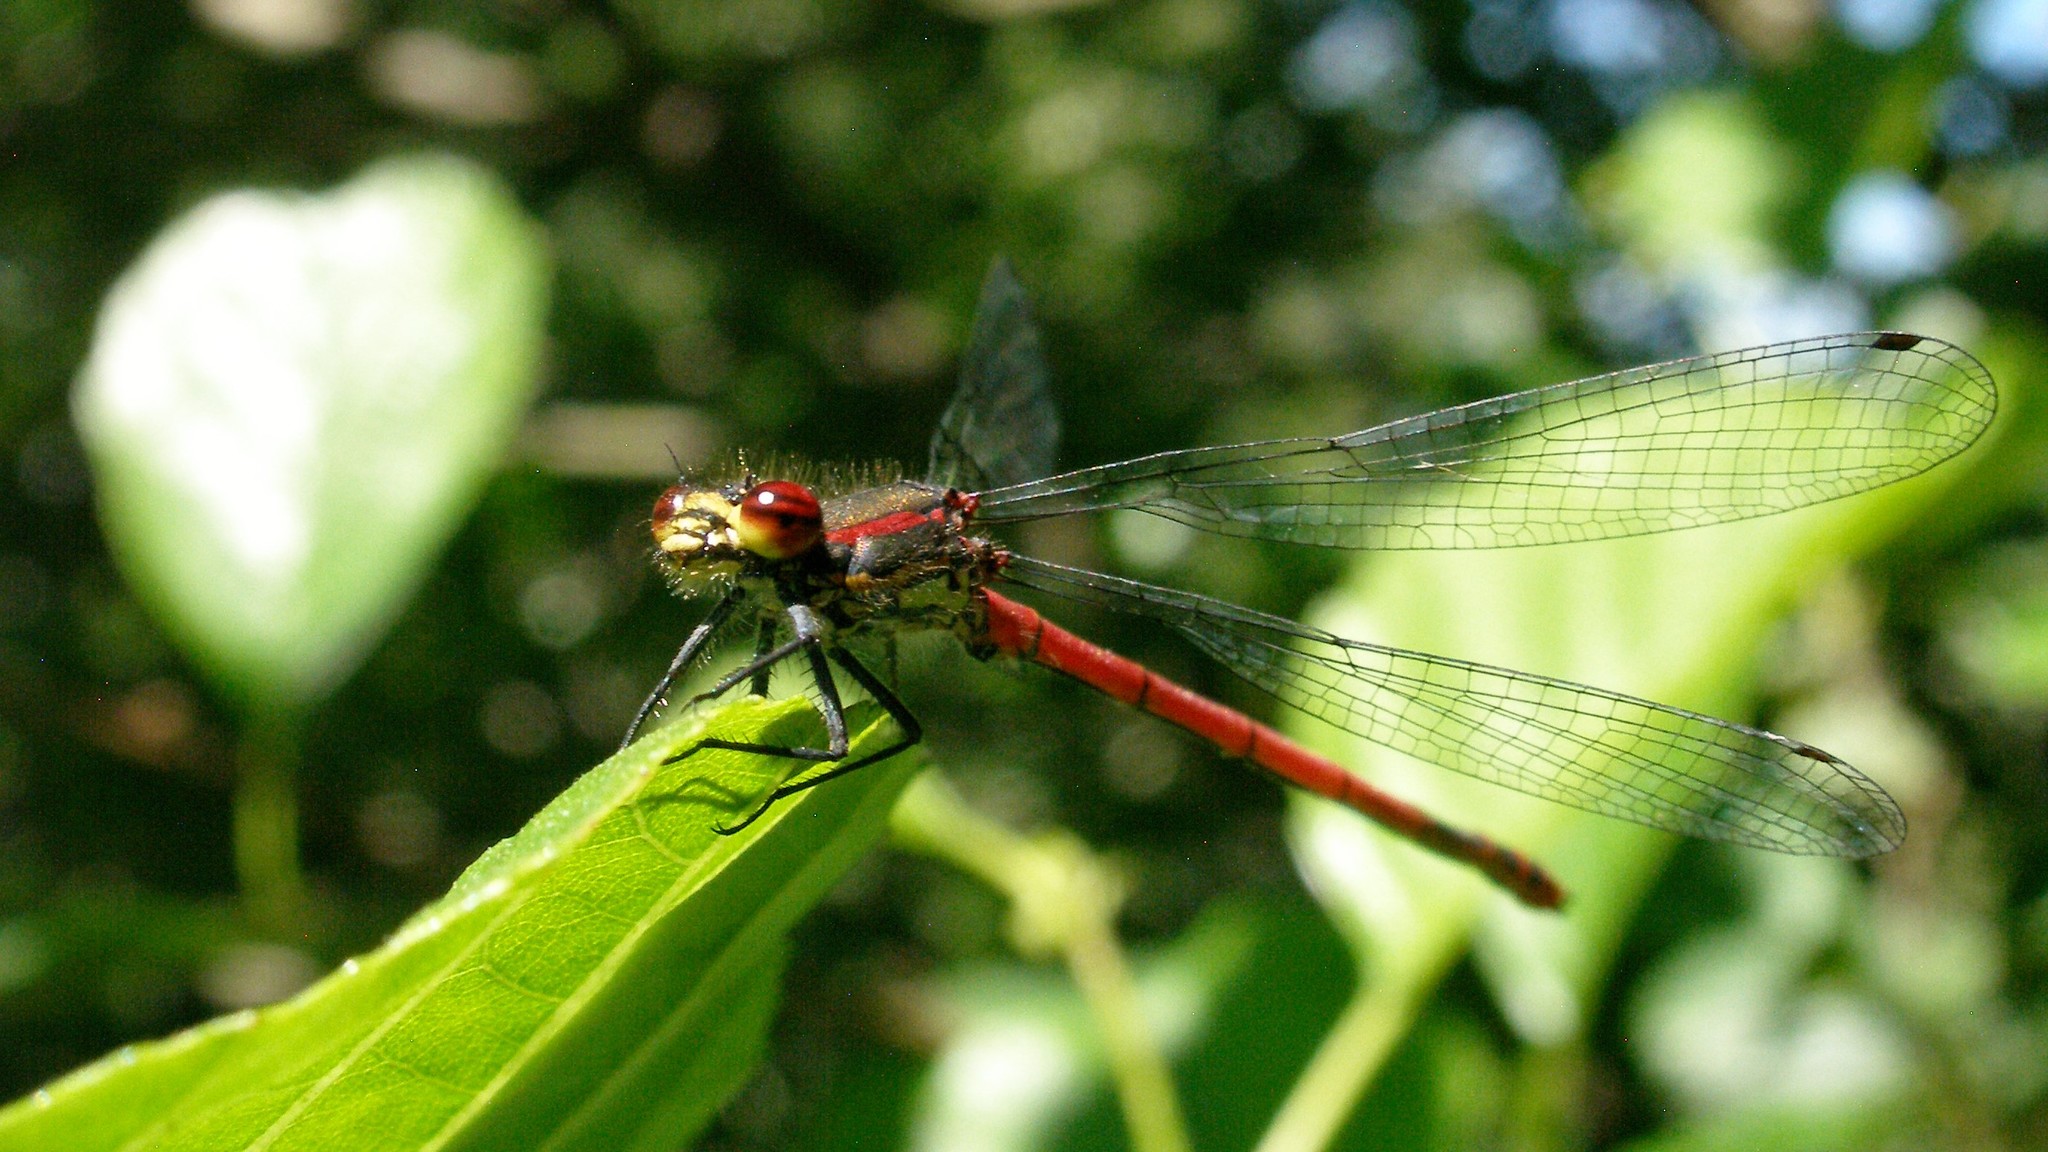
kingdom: Animalia
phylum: Arthropoda
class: Insecta
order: Odonata
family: Coenagrionidae
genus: Pyrrhosoma
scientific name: Pyrrhosoma nymphula
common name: Large red damsel
